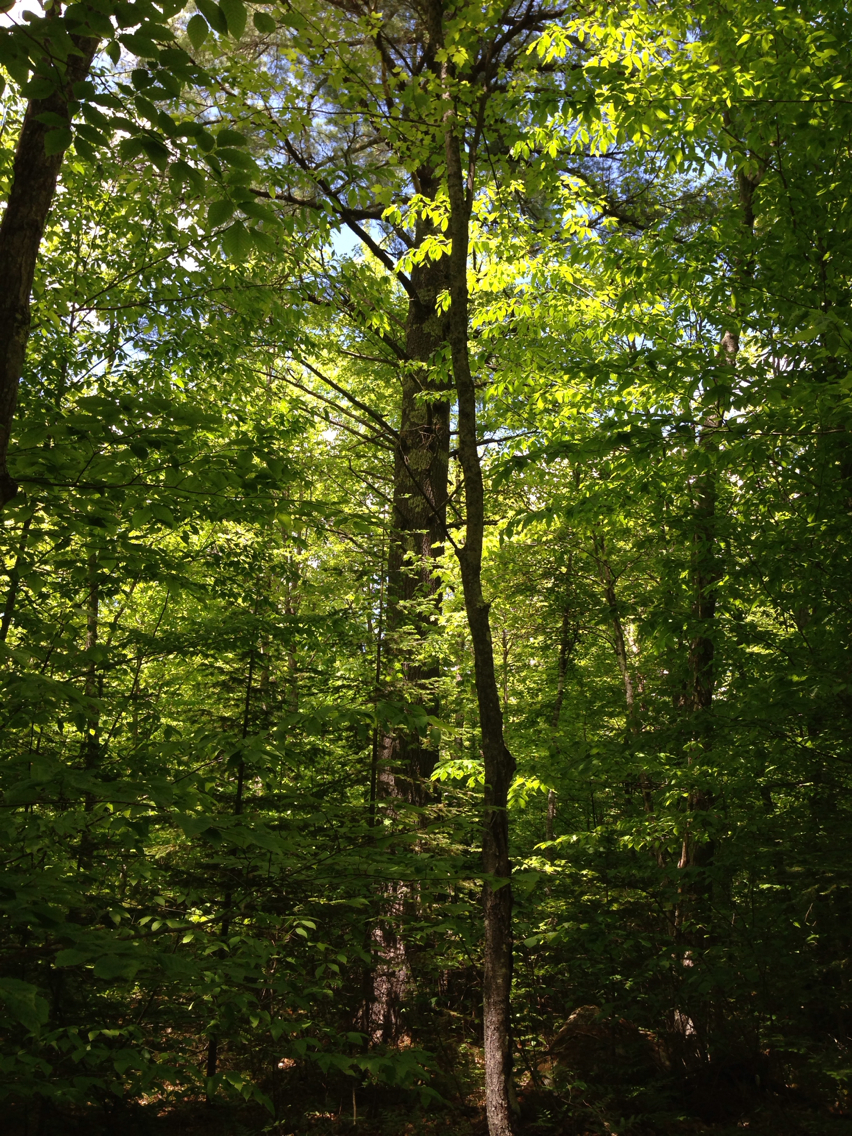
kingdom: Plantae
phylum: Tracheophyta
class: Pinopsida
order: Pinales
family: Pinaceae
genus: Pinus
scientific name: Pinus strobus
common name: Weymouth pine
